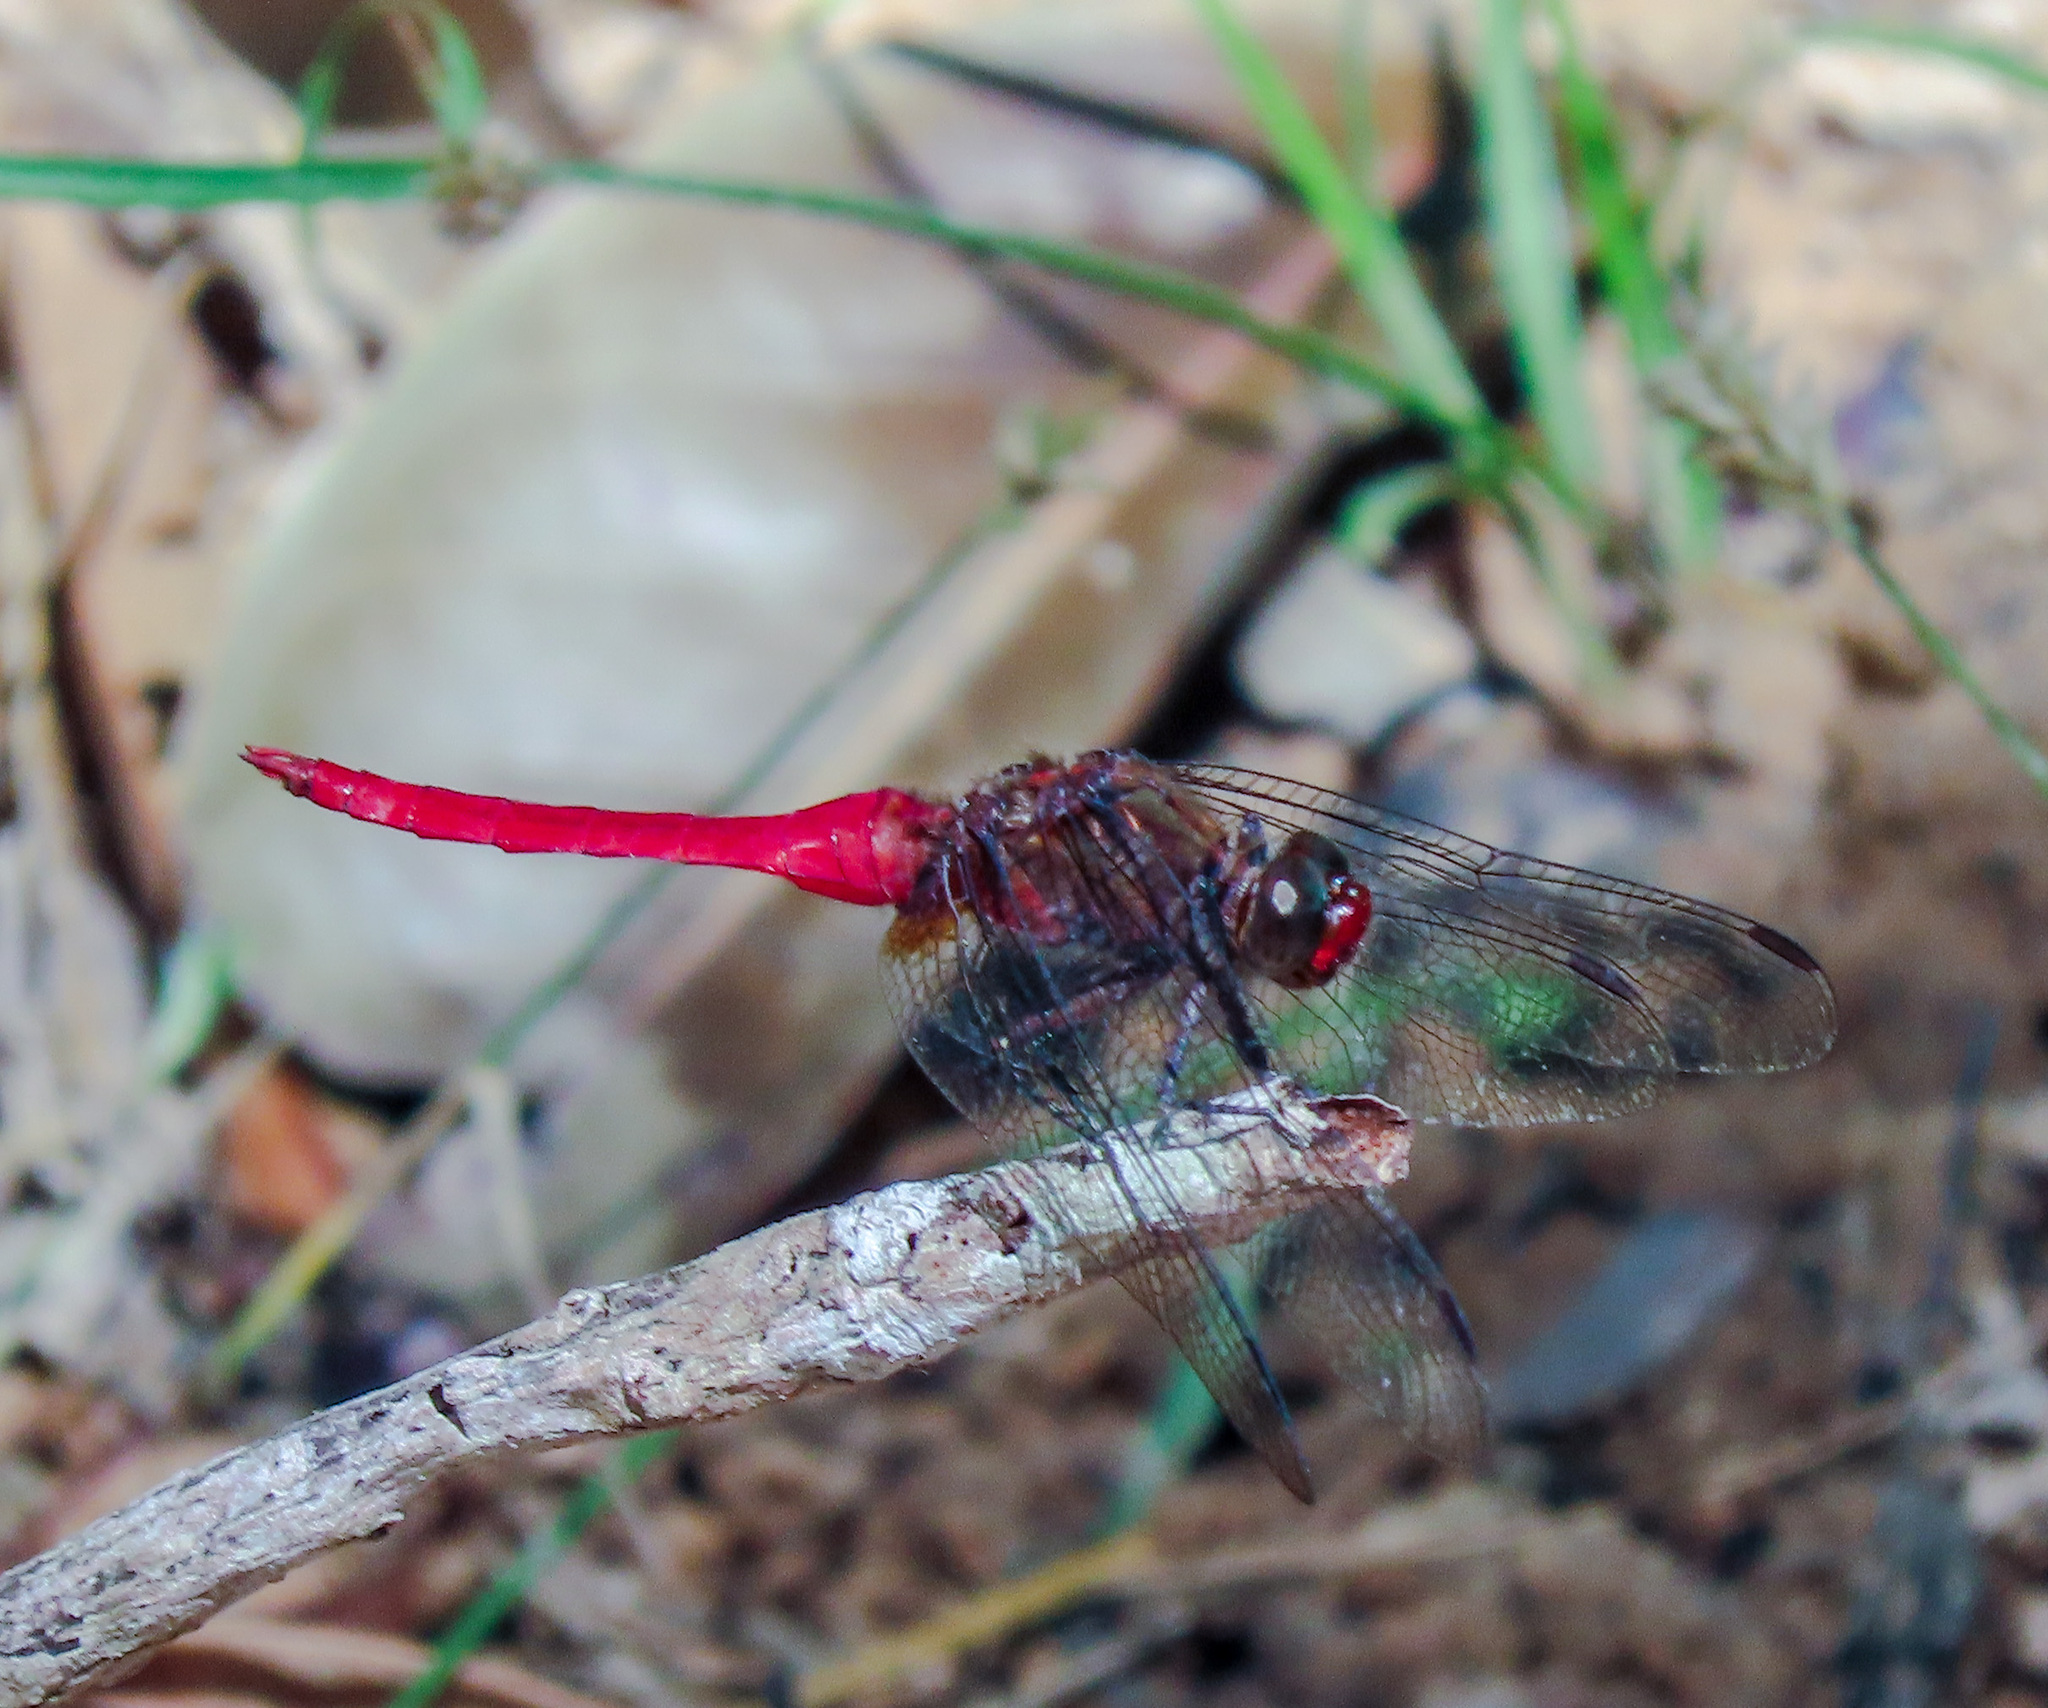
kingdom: Animalia
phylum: Arthropoda
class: Insecta
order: Odonata
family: Libellulidae
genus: Orthetrum
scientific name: Orthetrum chrysis
